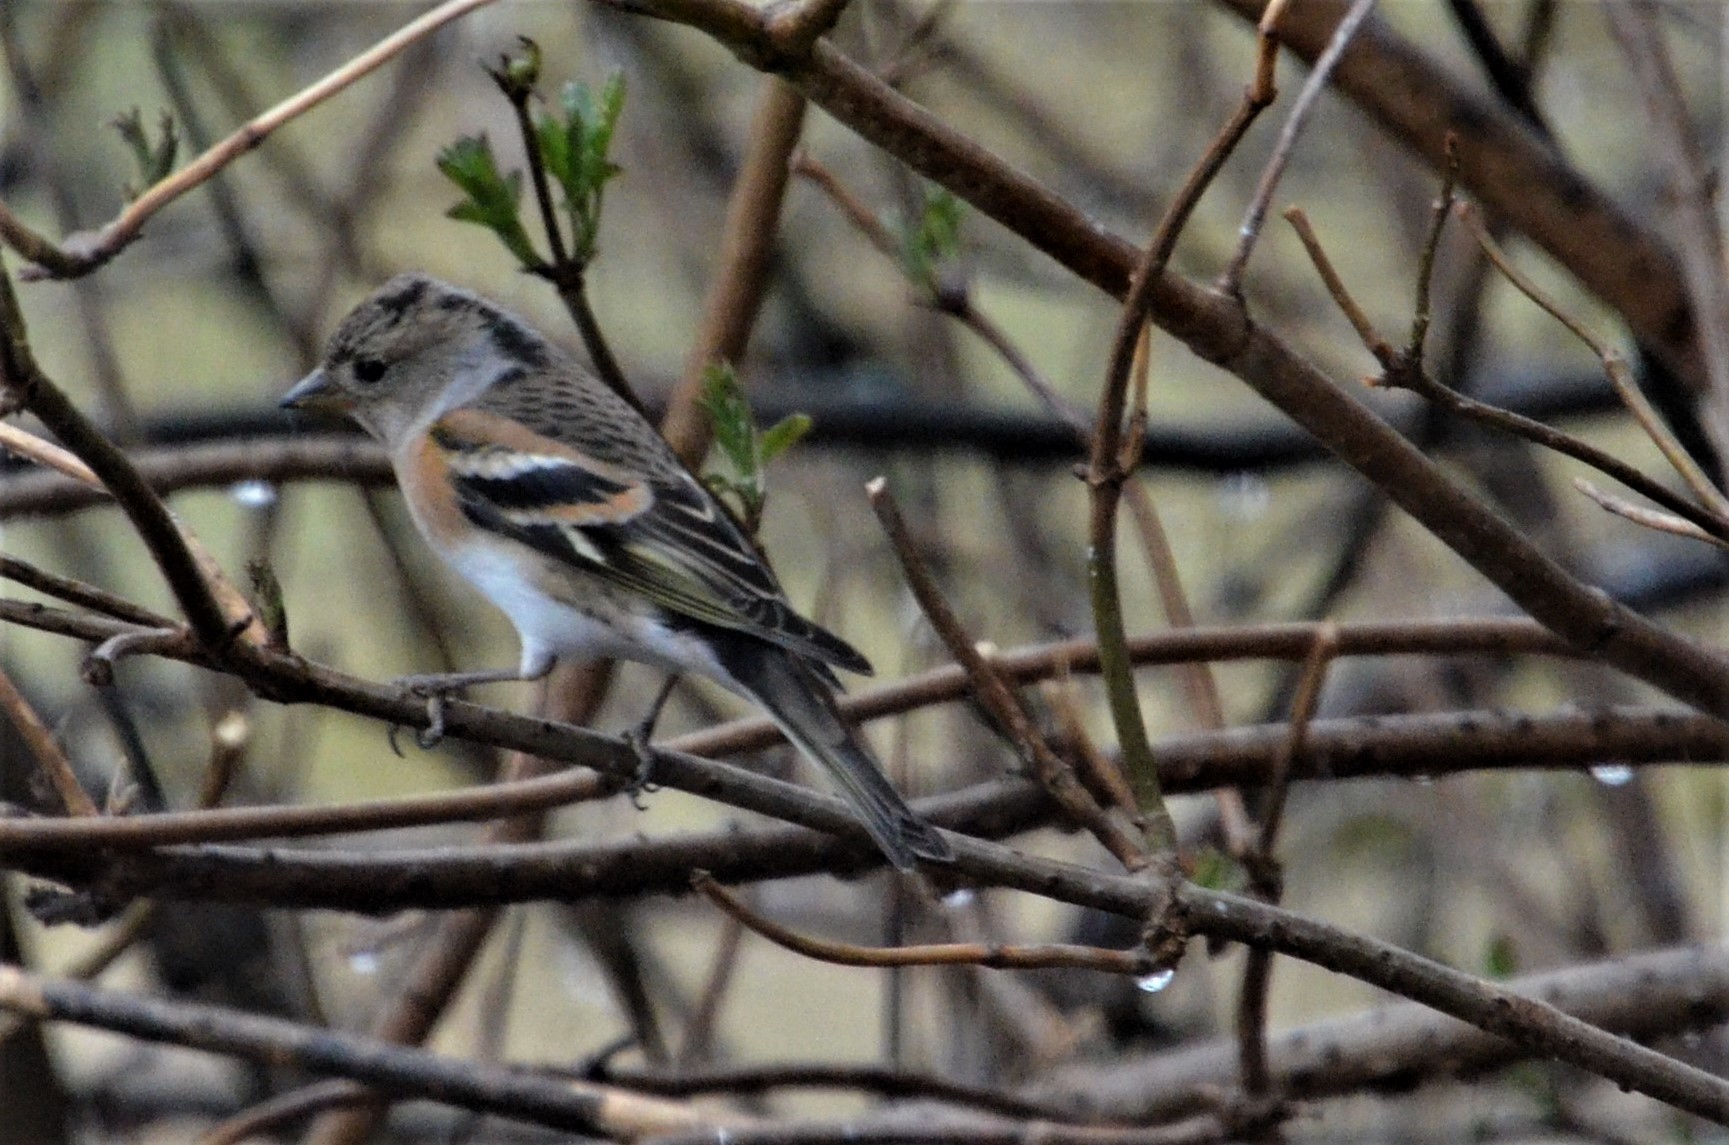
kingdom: Animalia
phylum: Chordata
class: Aves
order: Passeriformes
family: Fringillidae
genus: Fringilla
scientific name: Fringilla montifringilla
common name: Brambling
